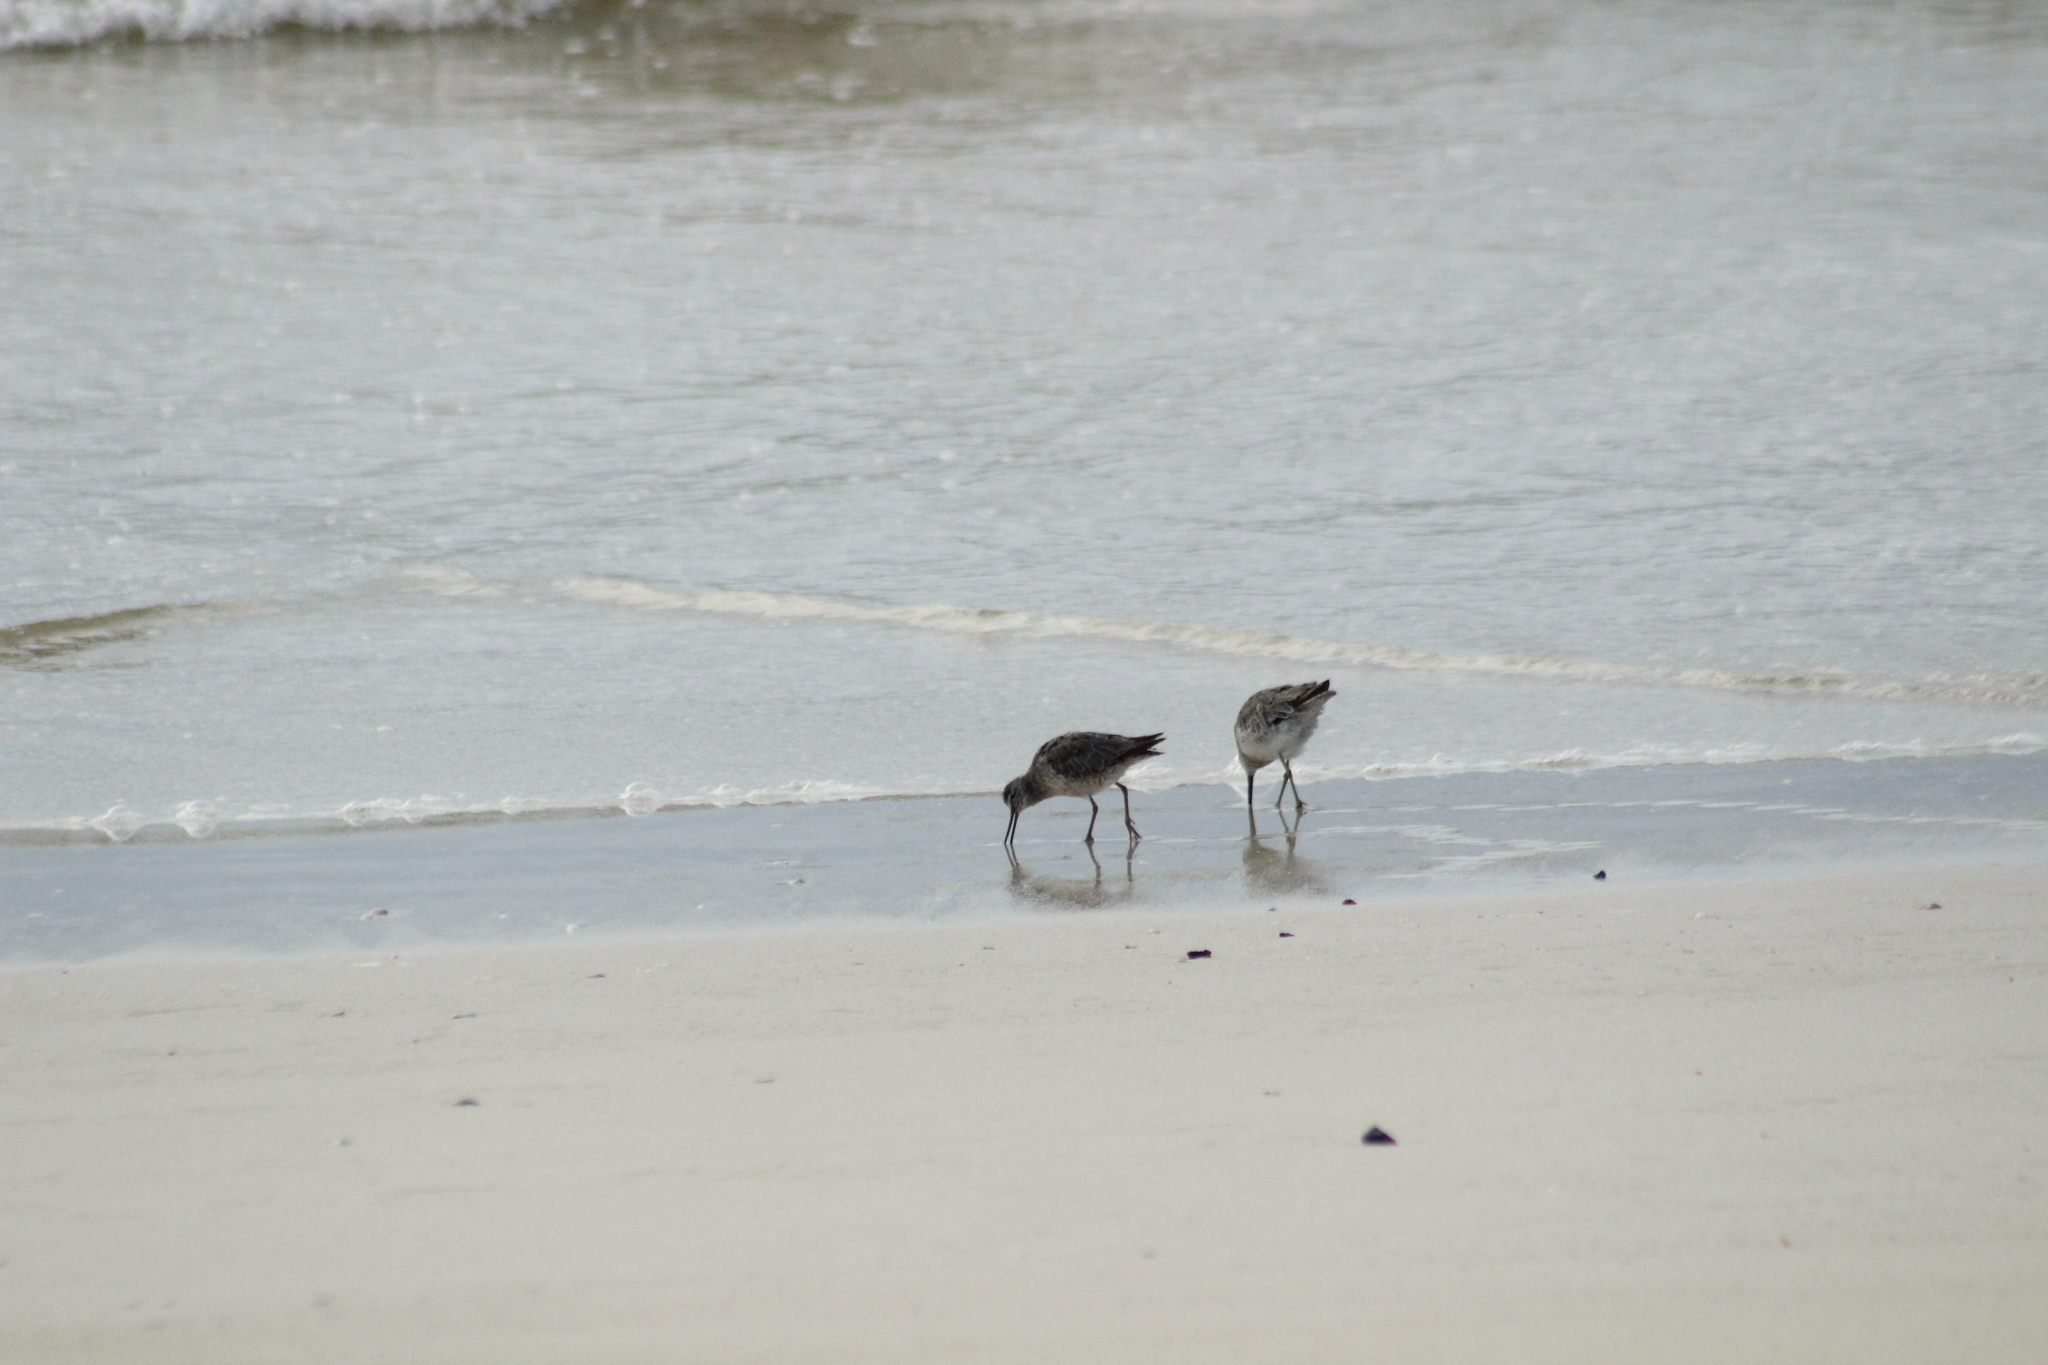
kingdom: Animalia
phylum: Chordata
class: Aves
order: Charadriiformes
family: Scolopacidae
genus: Limnodromus
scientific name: Limnodromus
